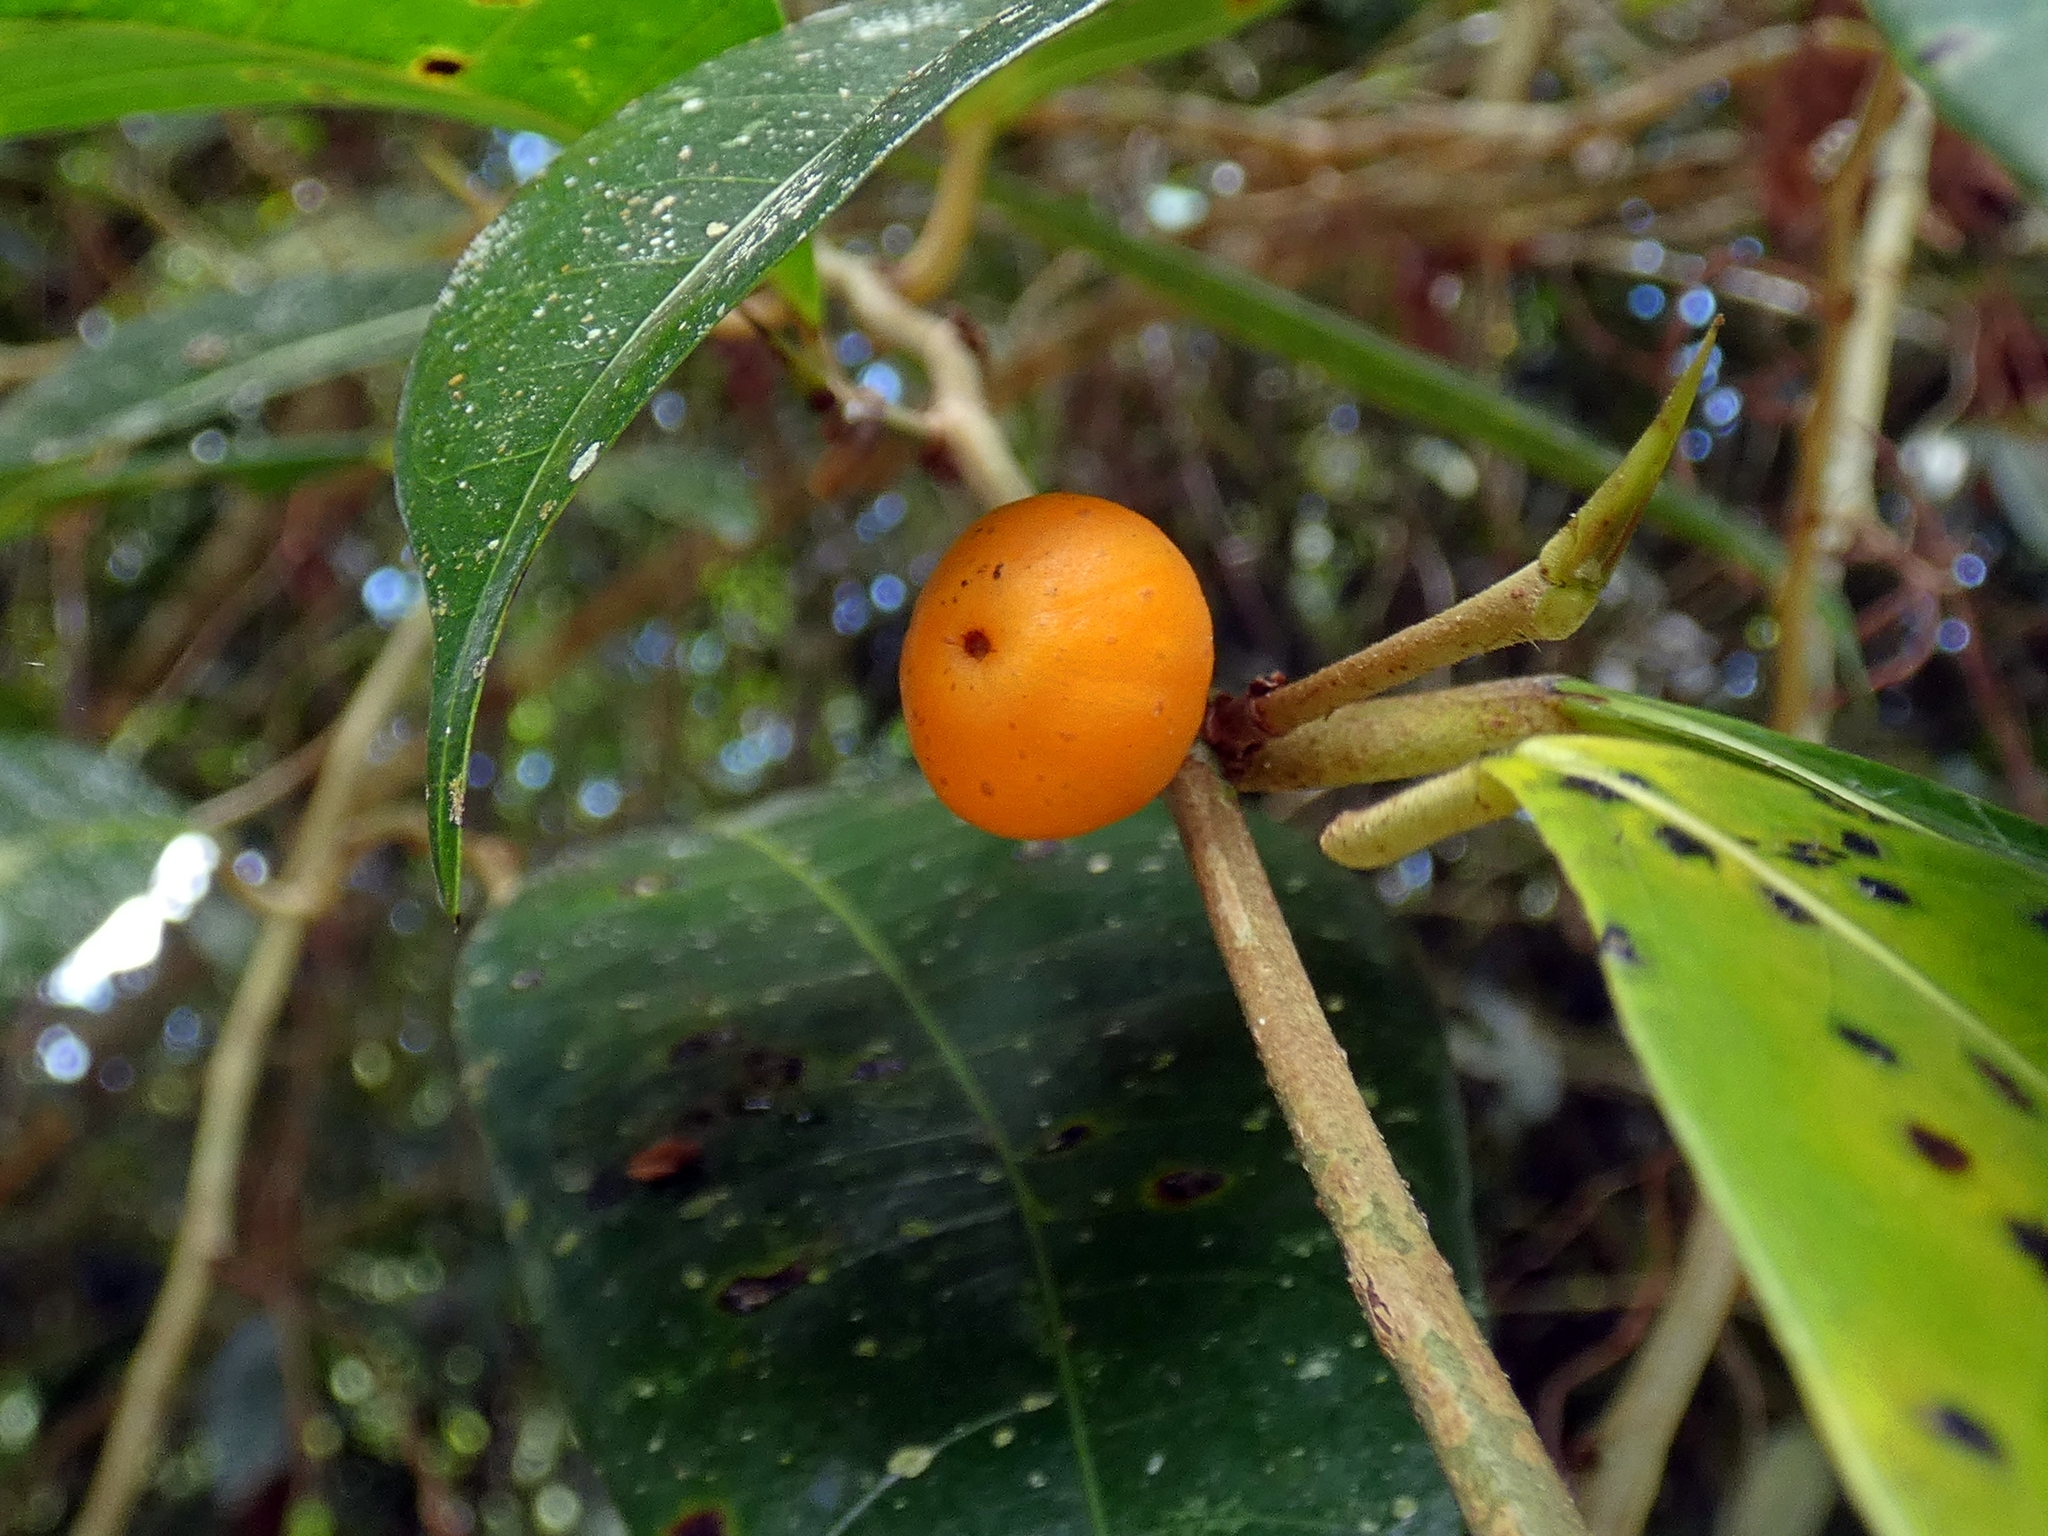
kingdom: Plantae
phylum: Tracheophyta
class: Magnoliopsida
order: Rosales
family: Moraceae
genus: Ficus
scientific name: Ficus virgata
